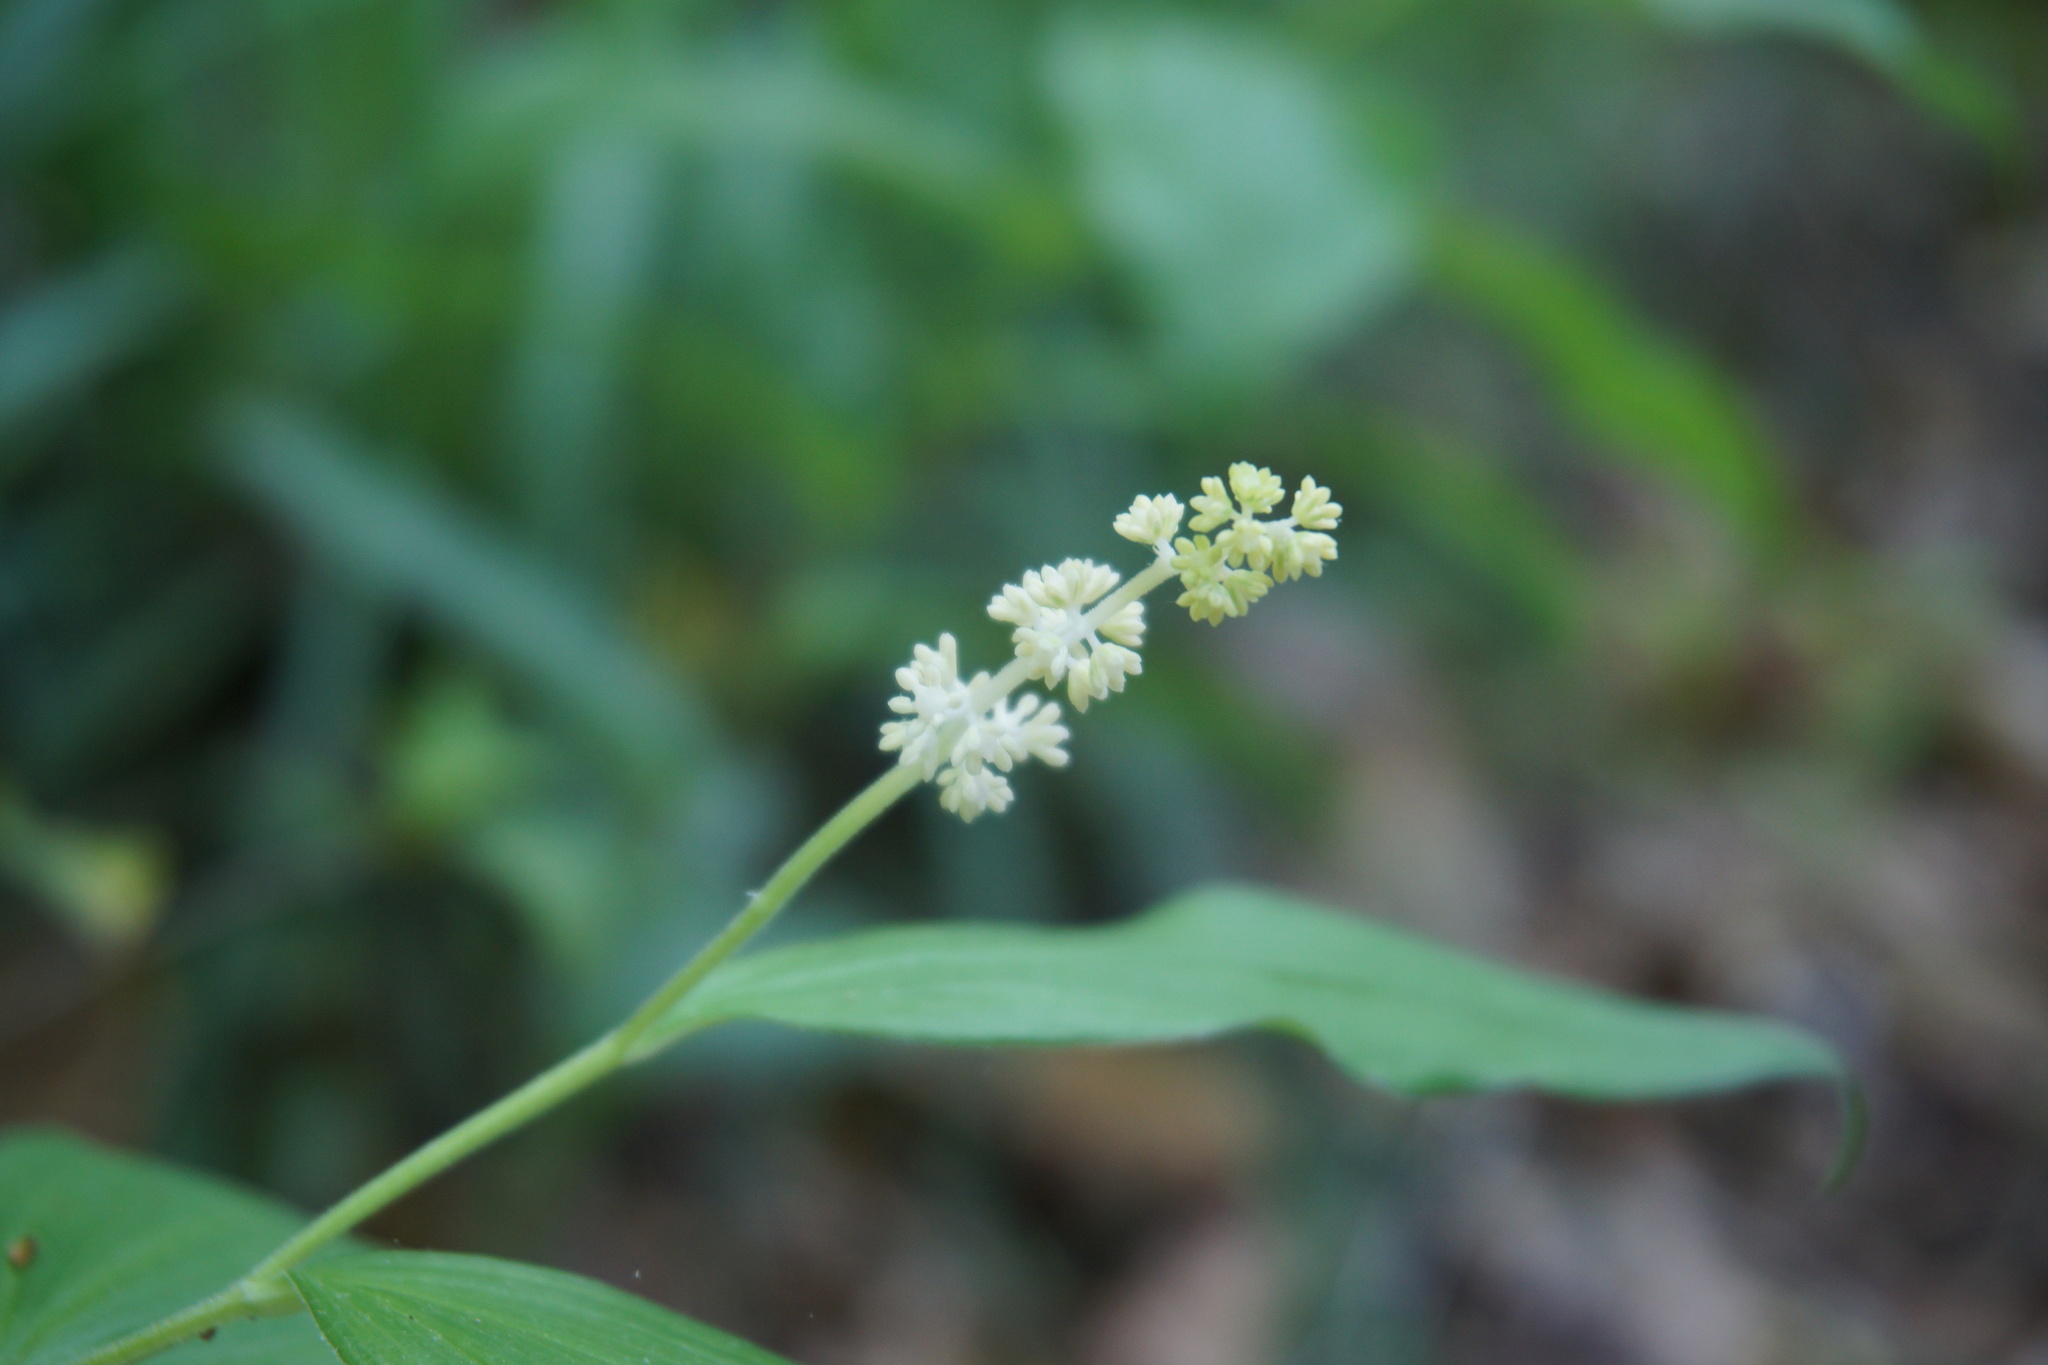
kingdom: Plantae
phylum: Tracheophyta
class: Liliopsida
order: Asparagales
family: Asparagaceae
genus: Maianthemum
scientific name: Maianthemum racemosum
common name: False spikenard
